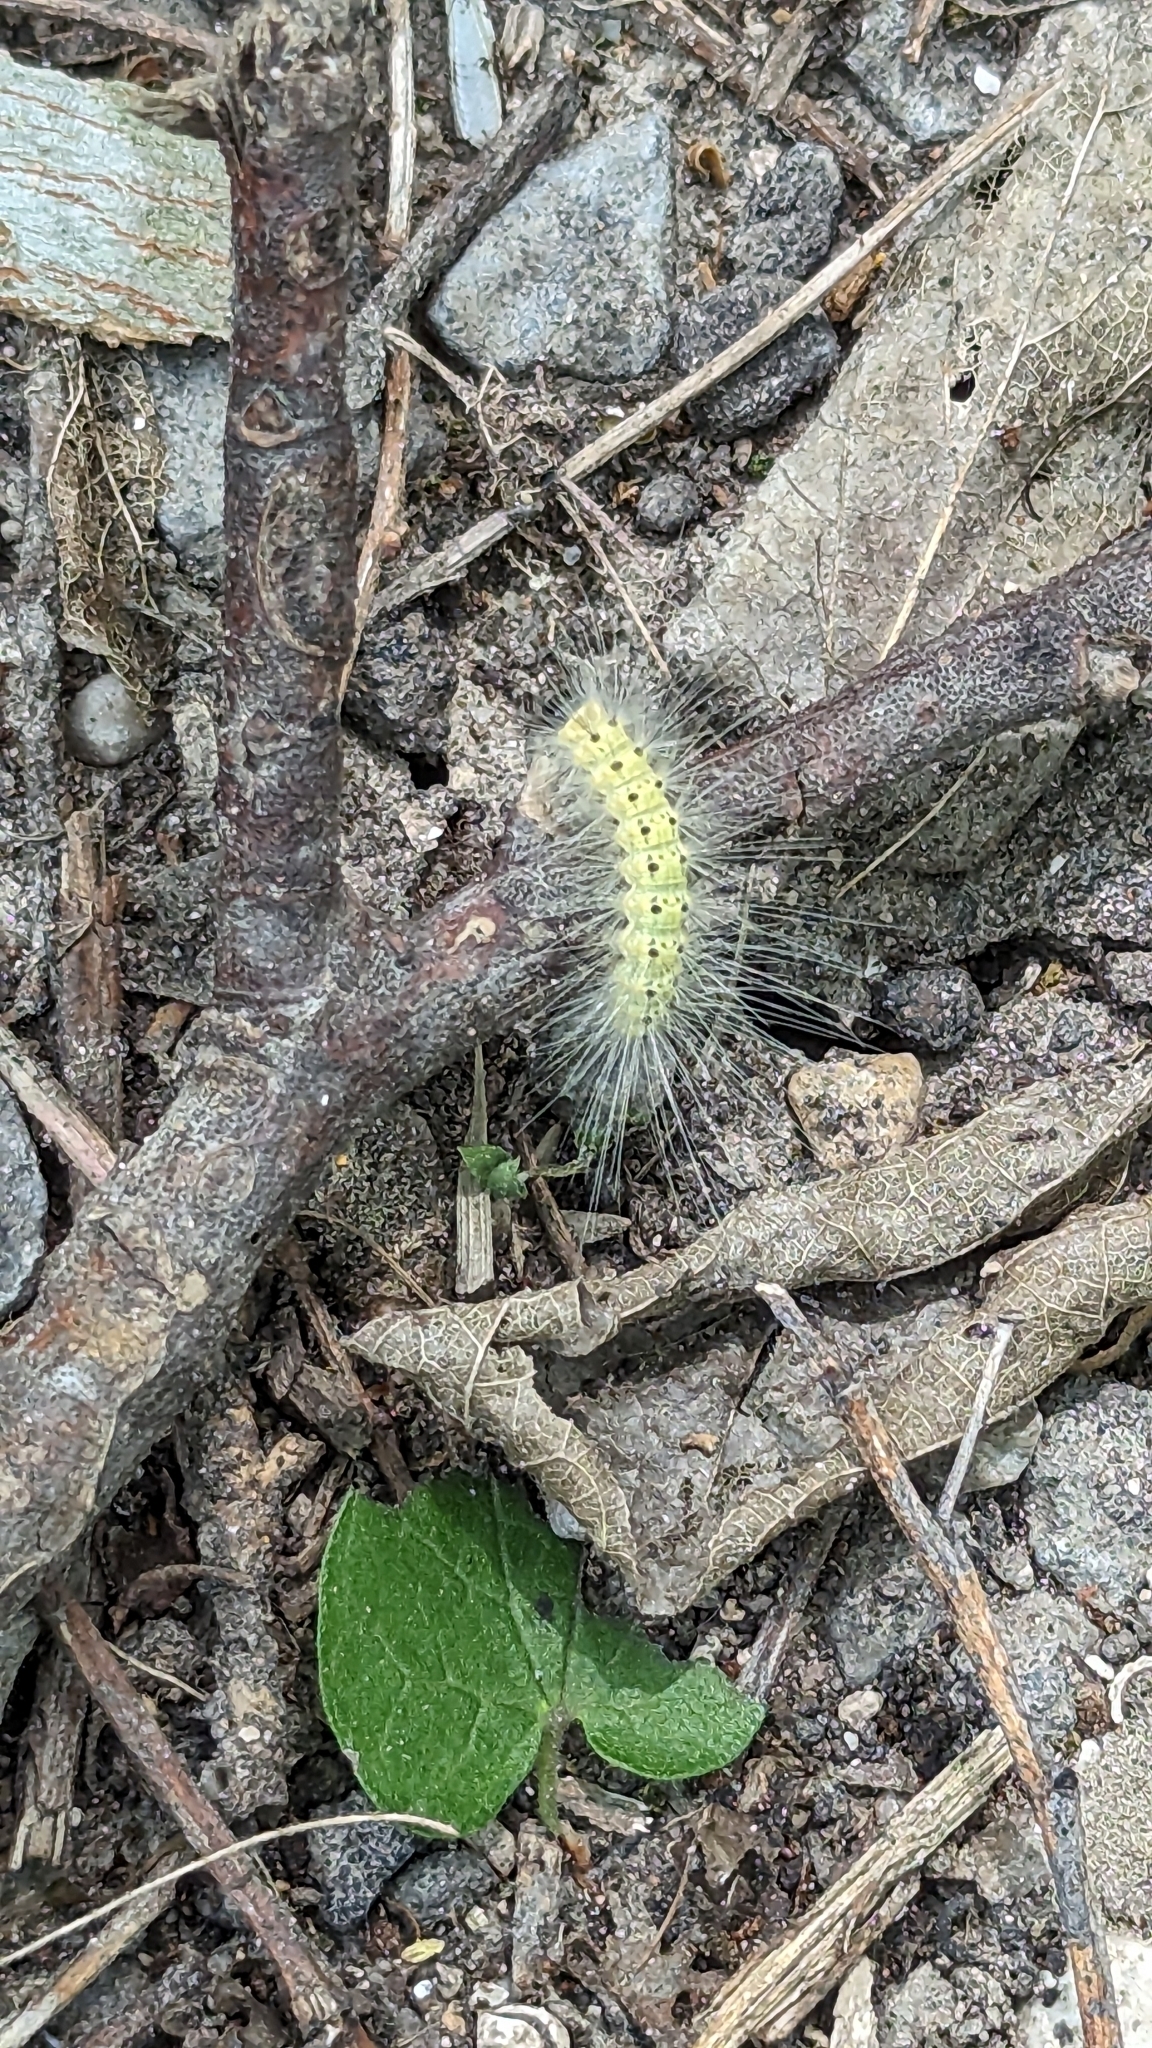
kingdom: Animalia
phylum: Arthropoda
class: Insecta
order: Lepidoptera
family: Erebidae
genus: Hyphantria
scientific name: Hyphantria cunea
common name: American white moth
